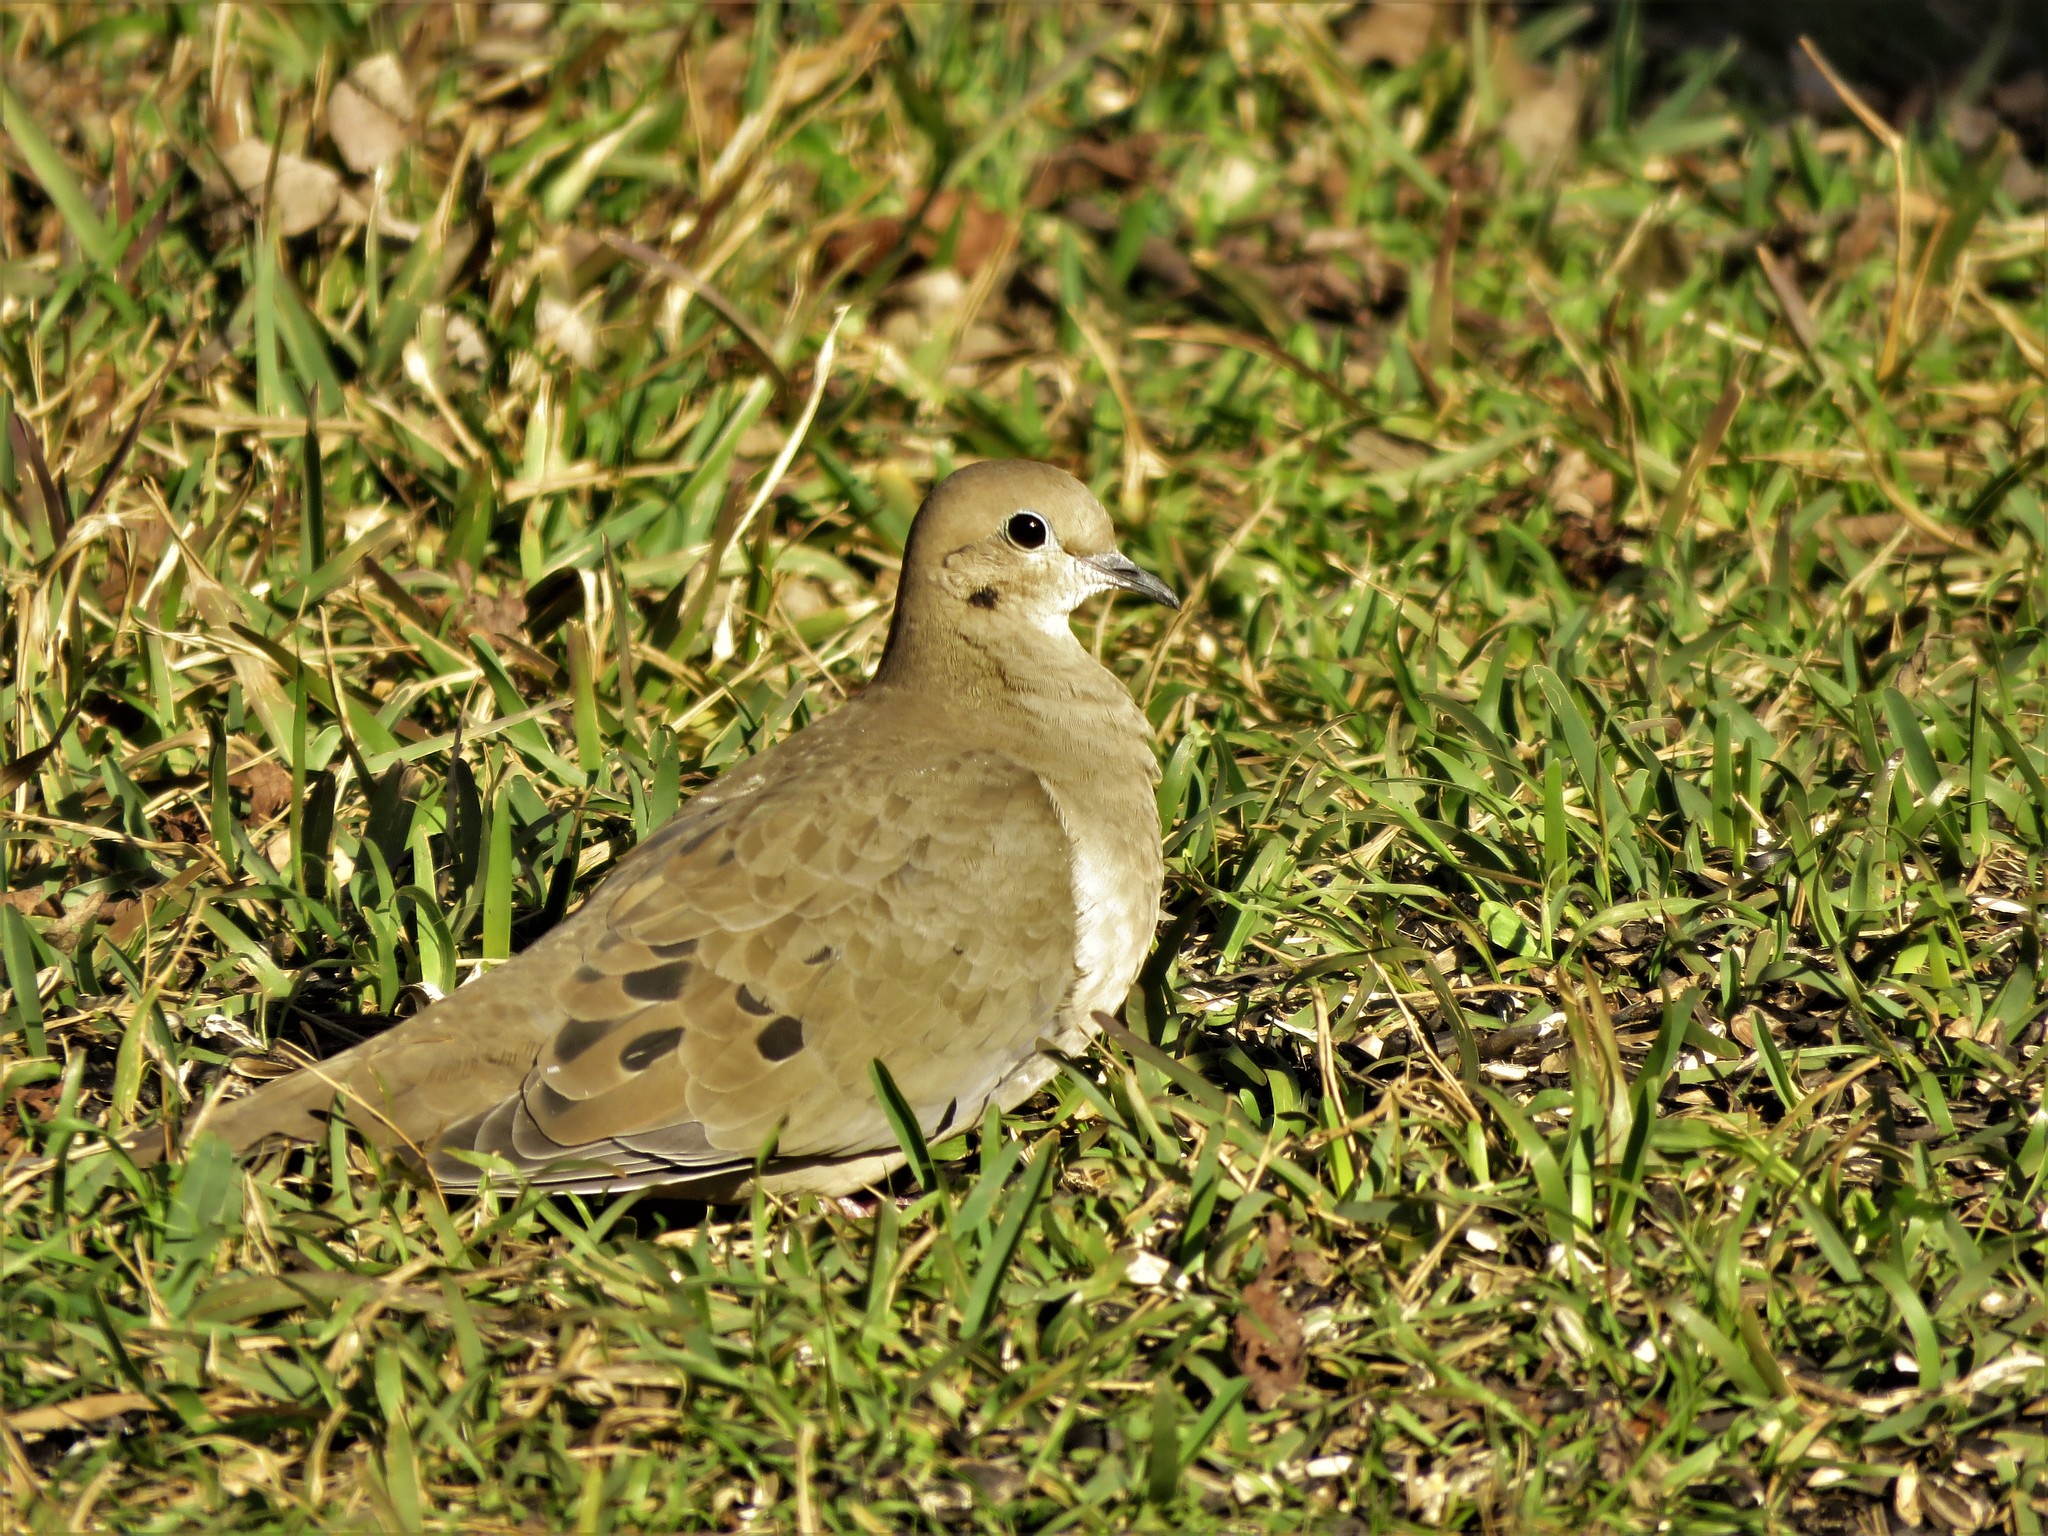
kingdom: Animalia
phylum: Chordata
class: Aves
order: Columbiformes
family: Columbidae
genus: Zenaida
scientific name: Zenaida macroura
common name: Mourning dove
